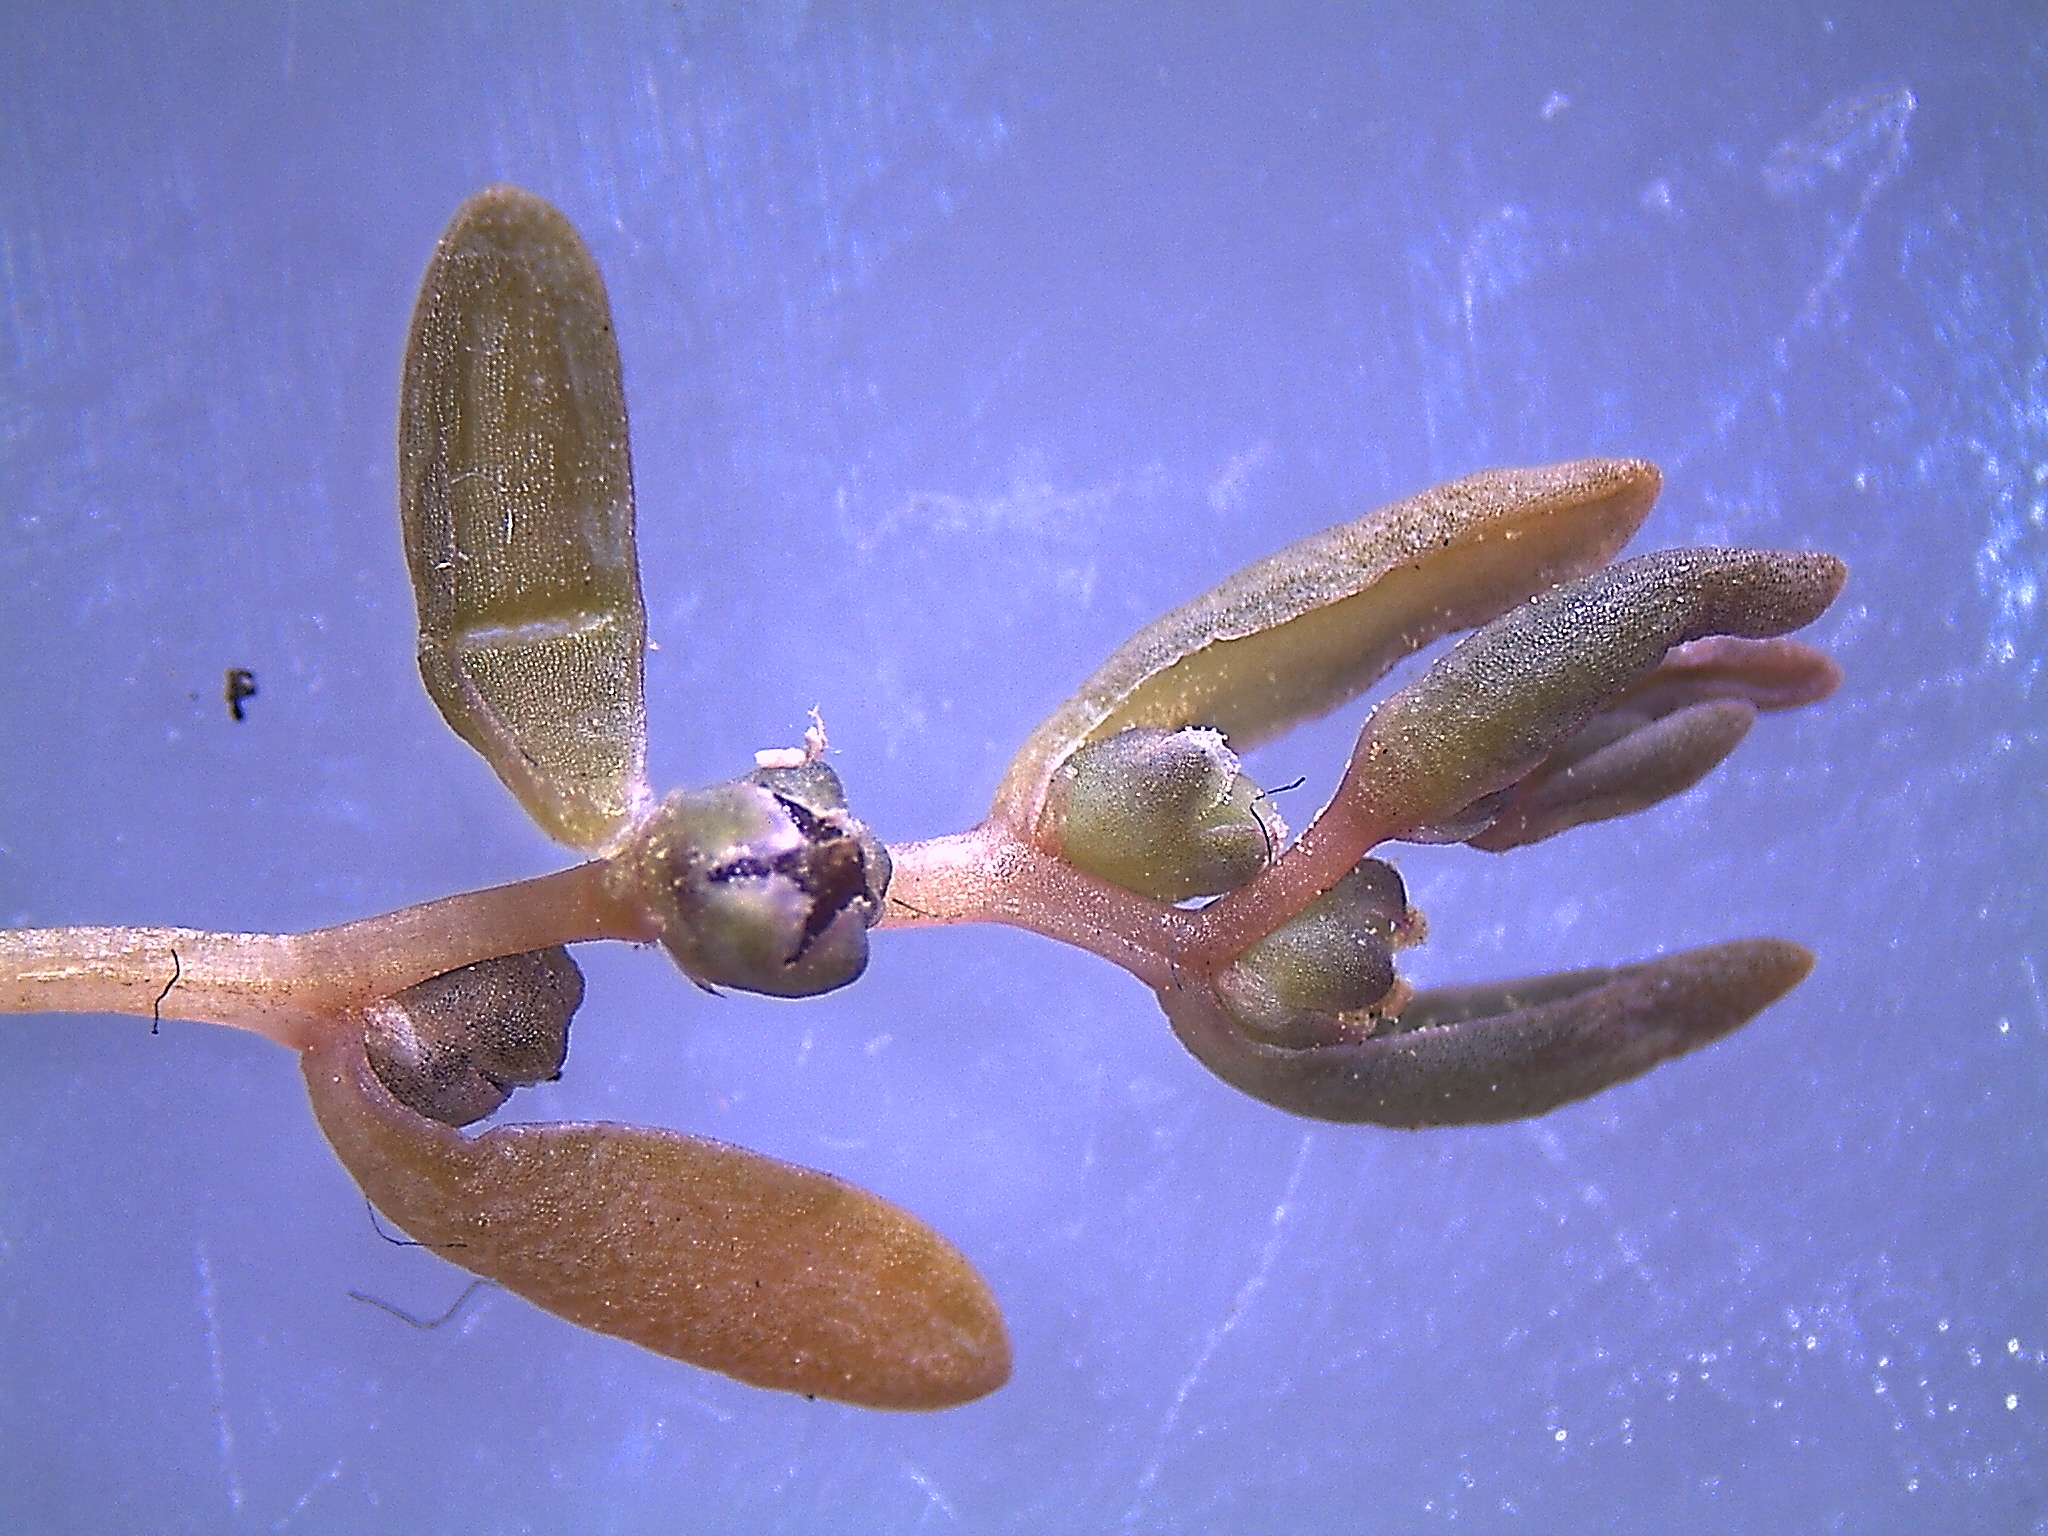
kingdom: Plantae
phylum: Tracheophyta
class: Magnoliopsida
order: Caryophyllales
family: Amaranthaceae
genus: Suaeda
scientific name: Suaeda novae-zelandiae
